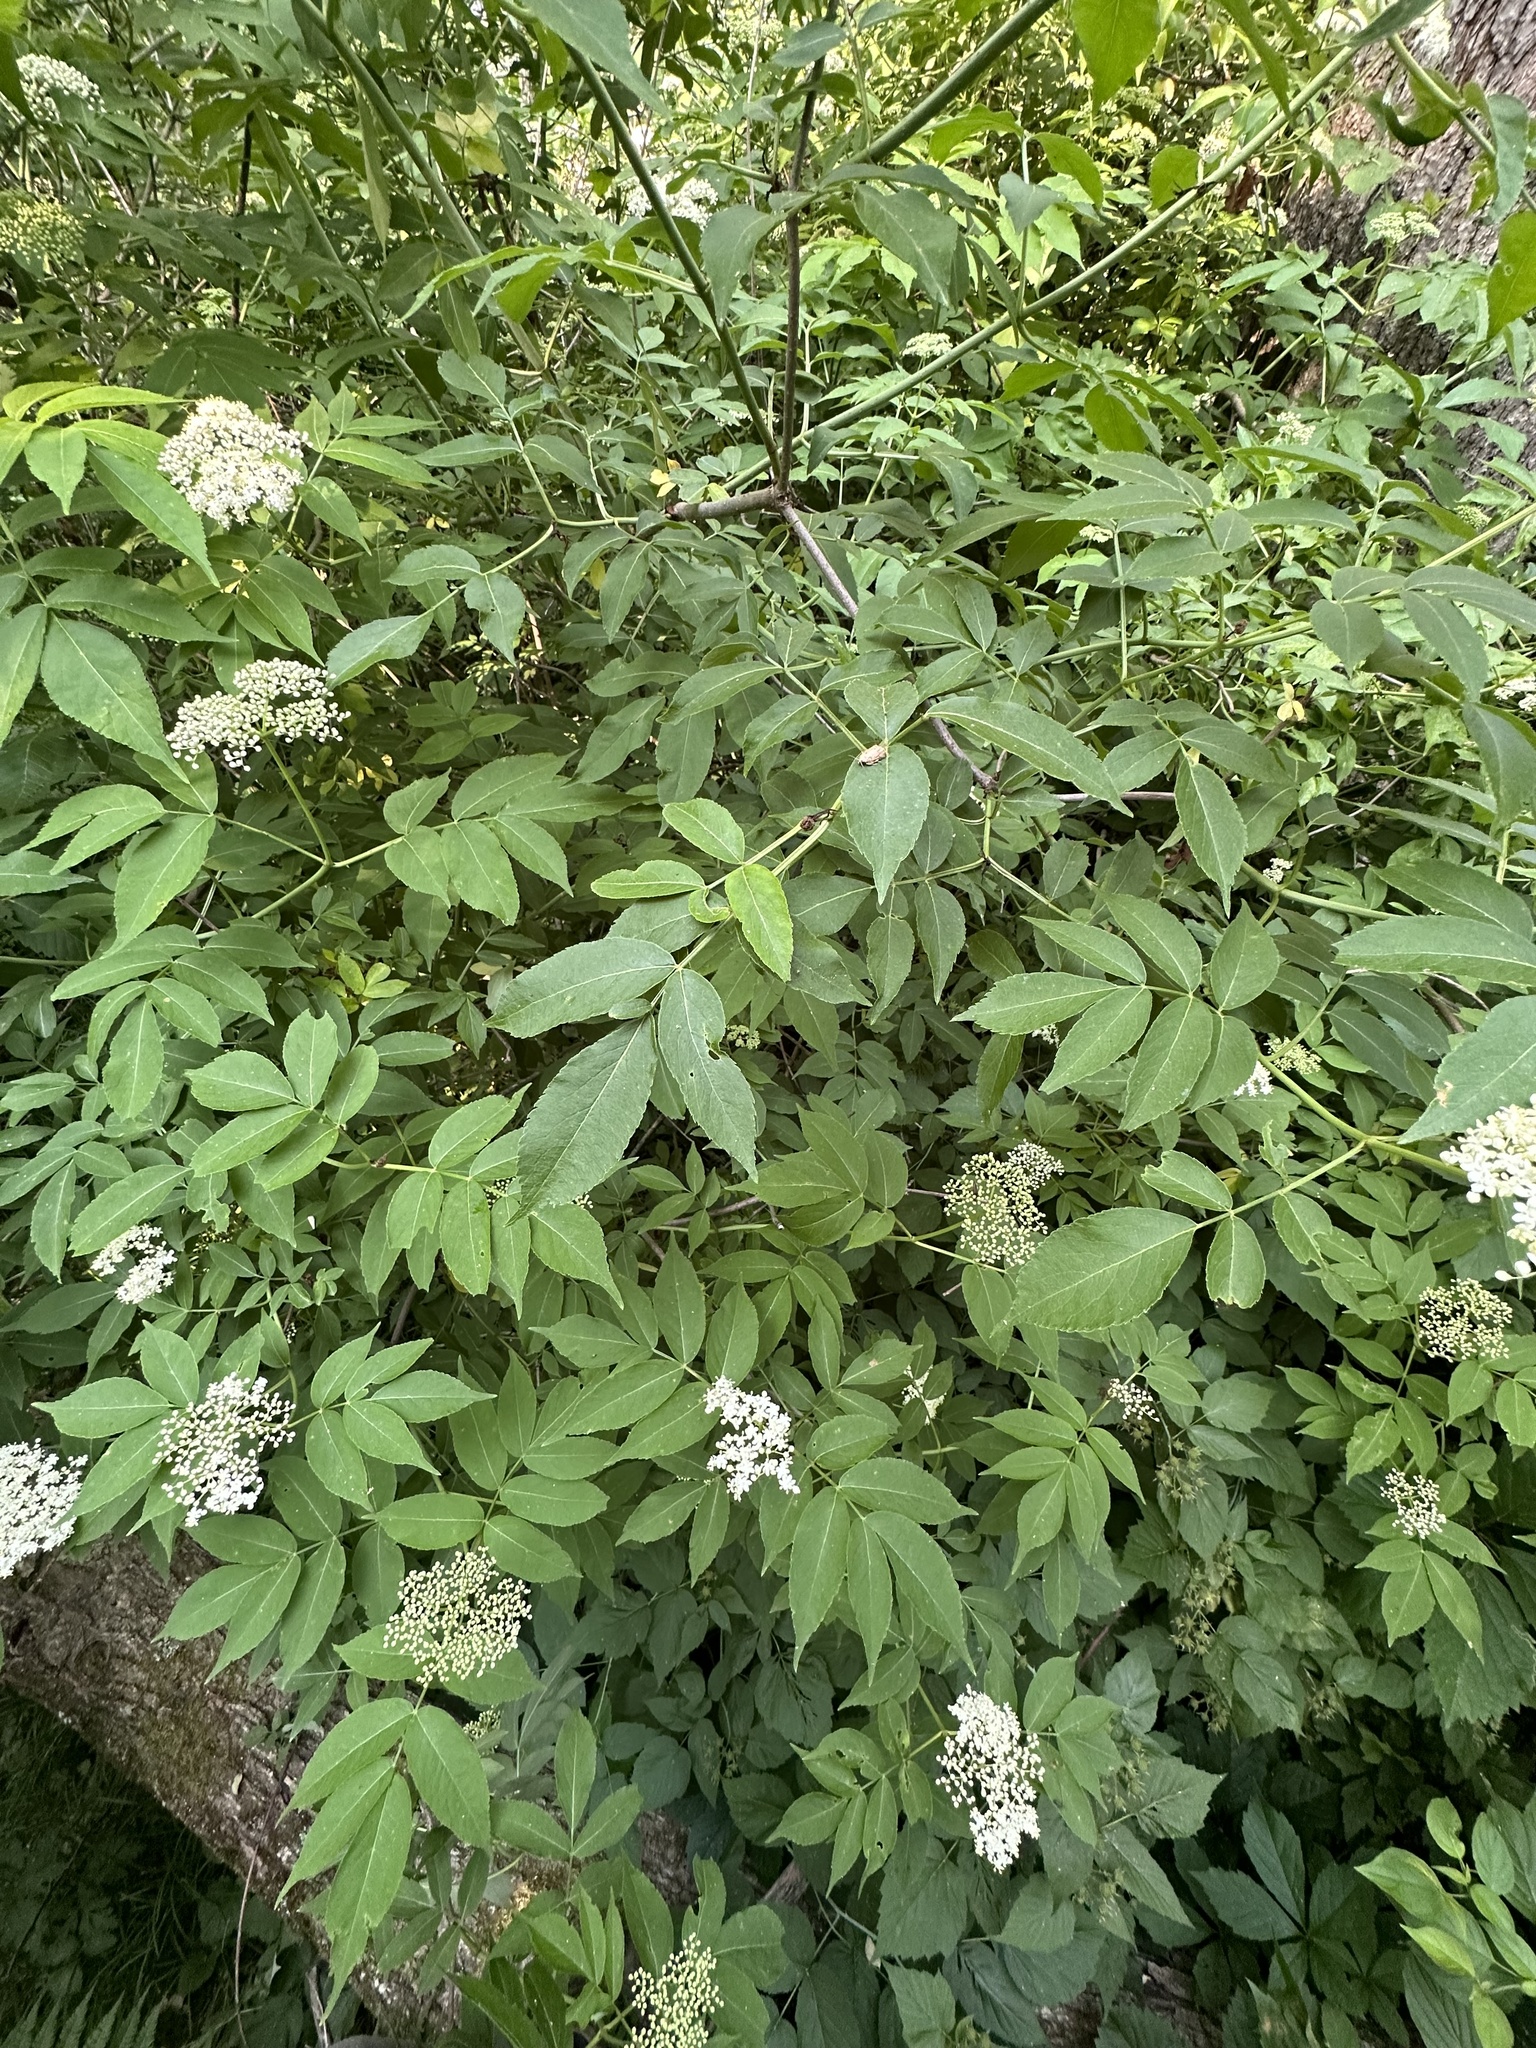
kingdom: Plantae
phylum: Tracheophyta
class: Magnoliopsida
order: Dipsacales
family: Viburnaceae
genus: Sambucus
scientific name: Sambucus canadensis
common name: American elder
